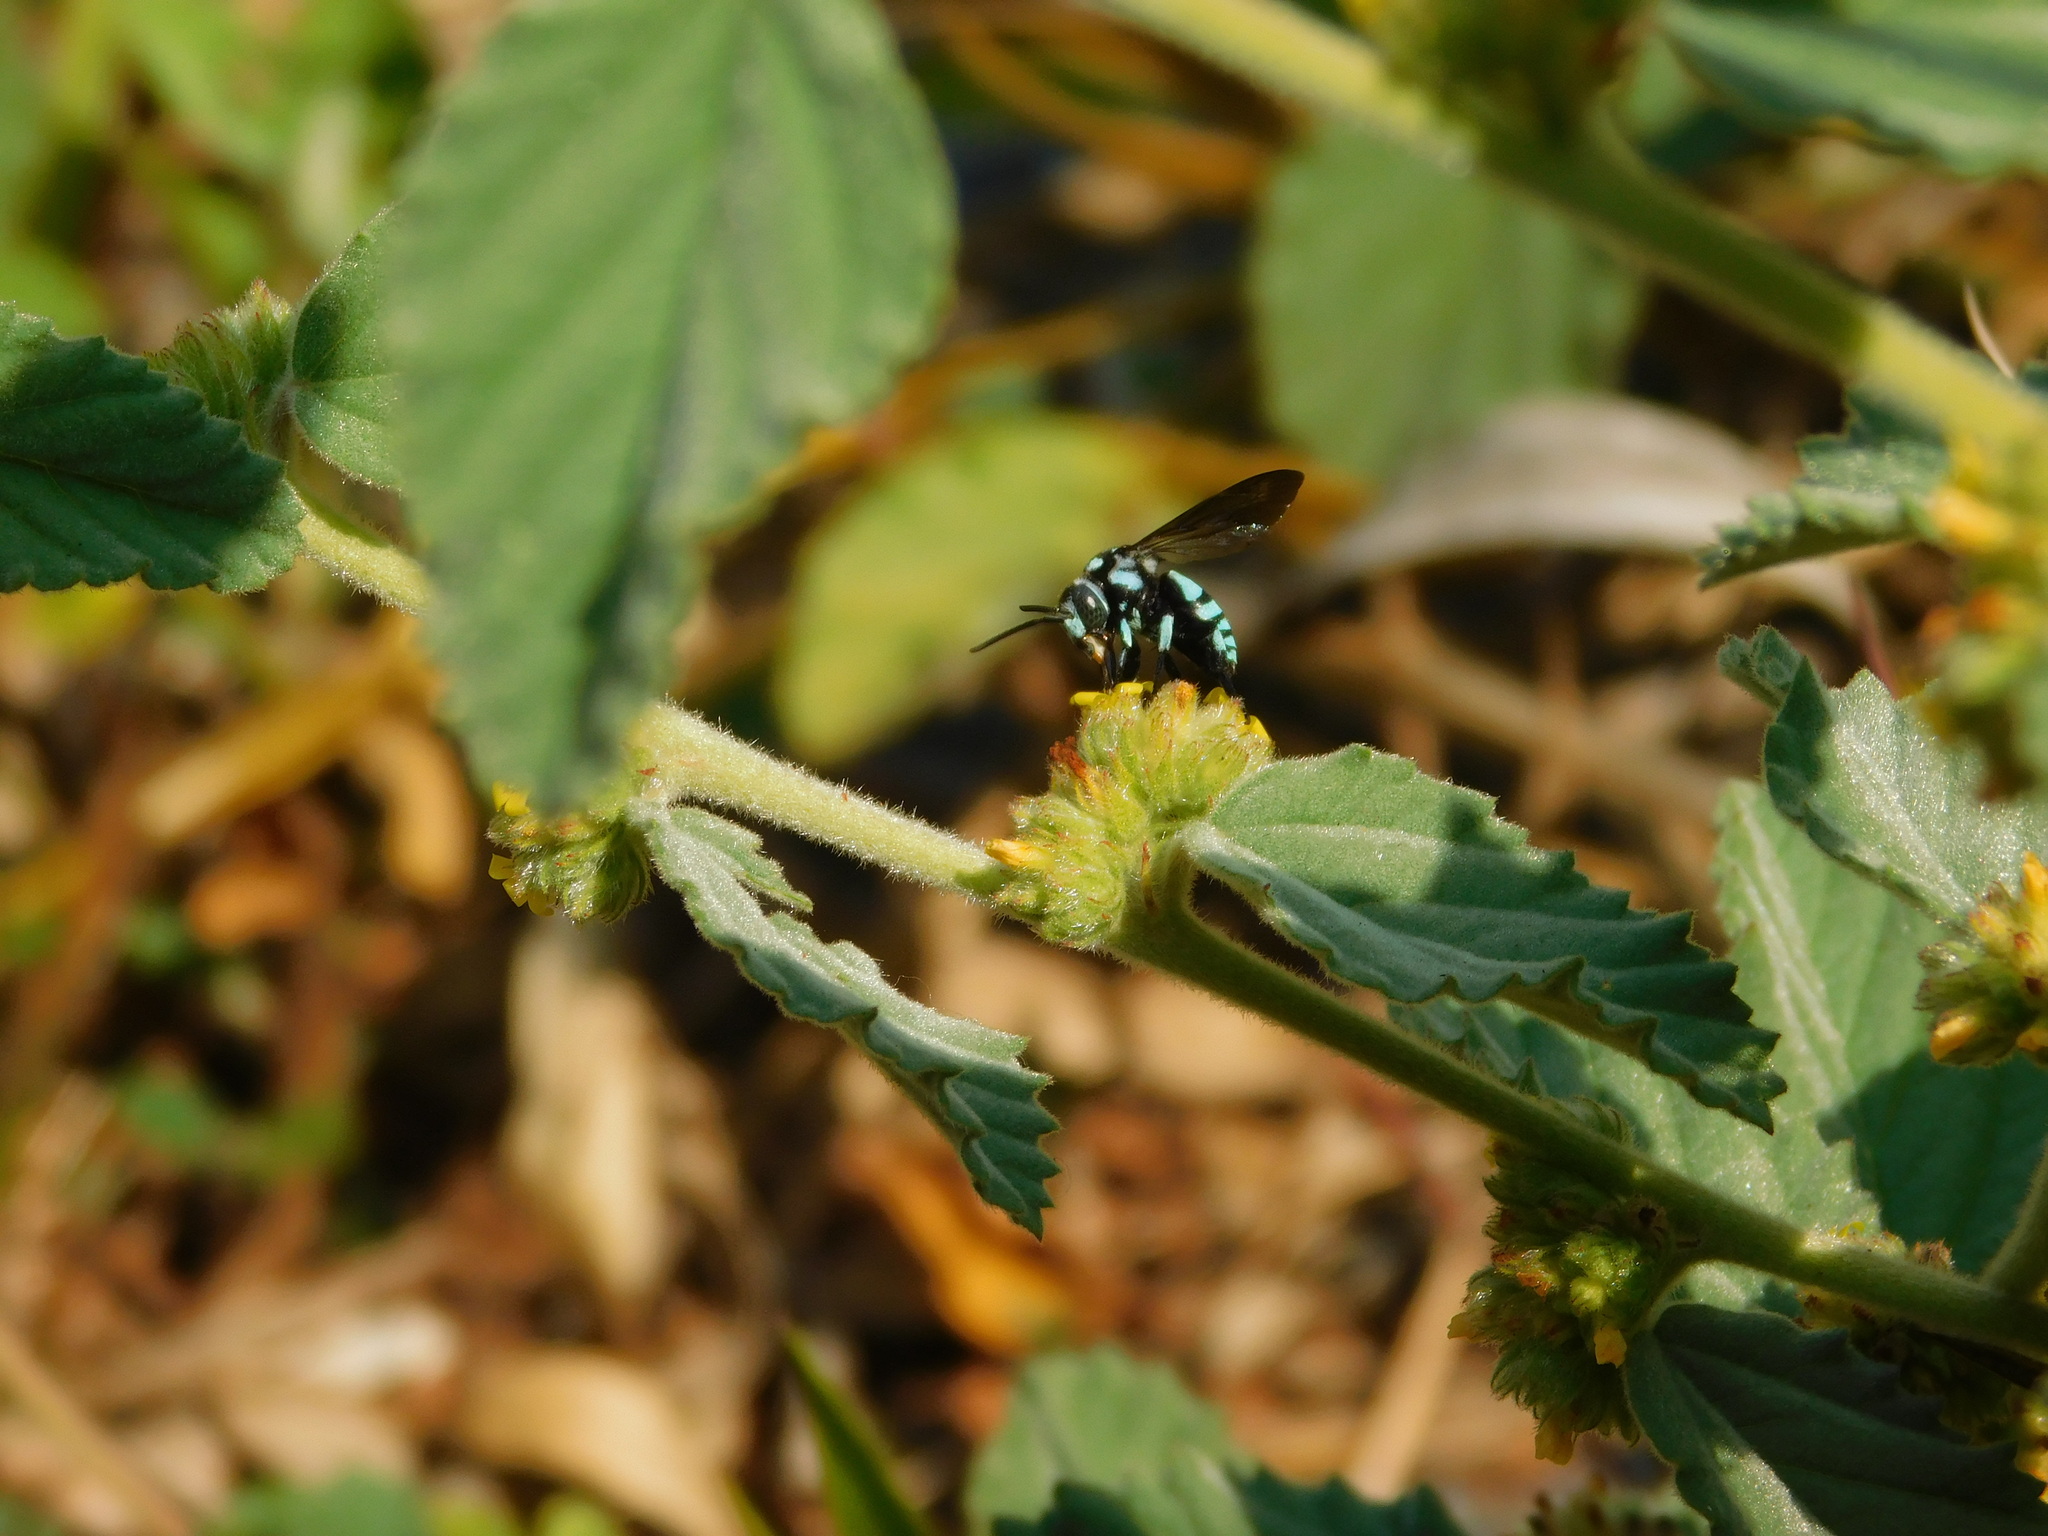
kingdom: Animalia
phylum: Arthropoda
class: Insecta
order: Hymenoptera
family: Apidae
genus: Thyreus
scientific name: Thyreus lilacinus
